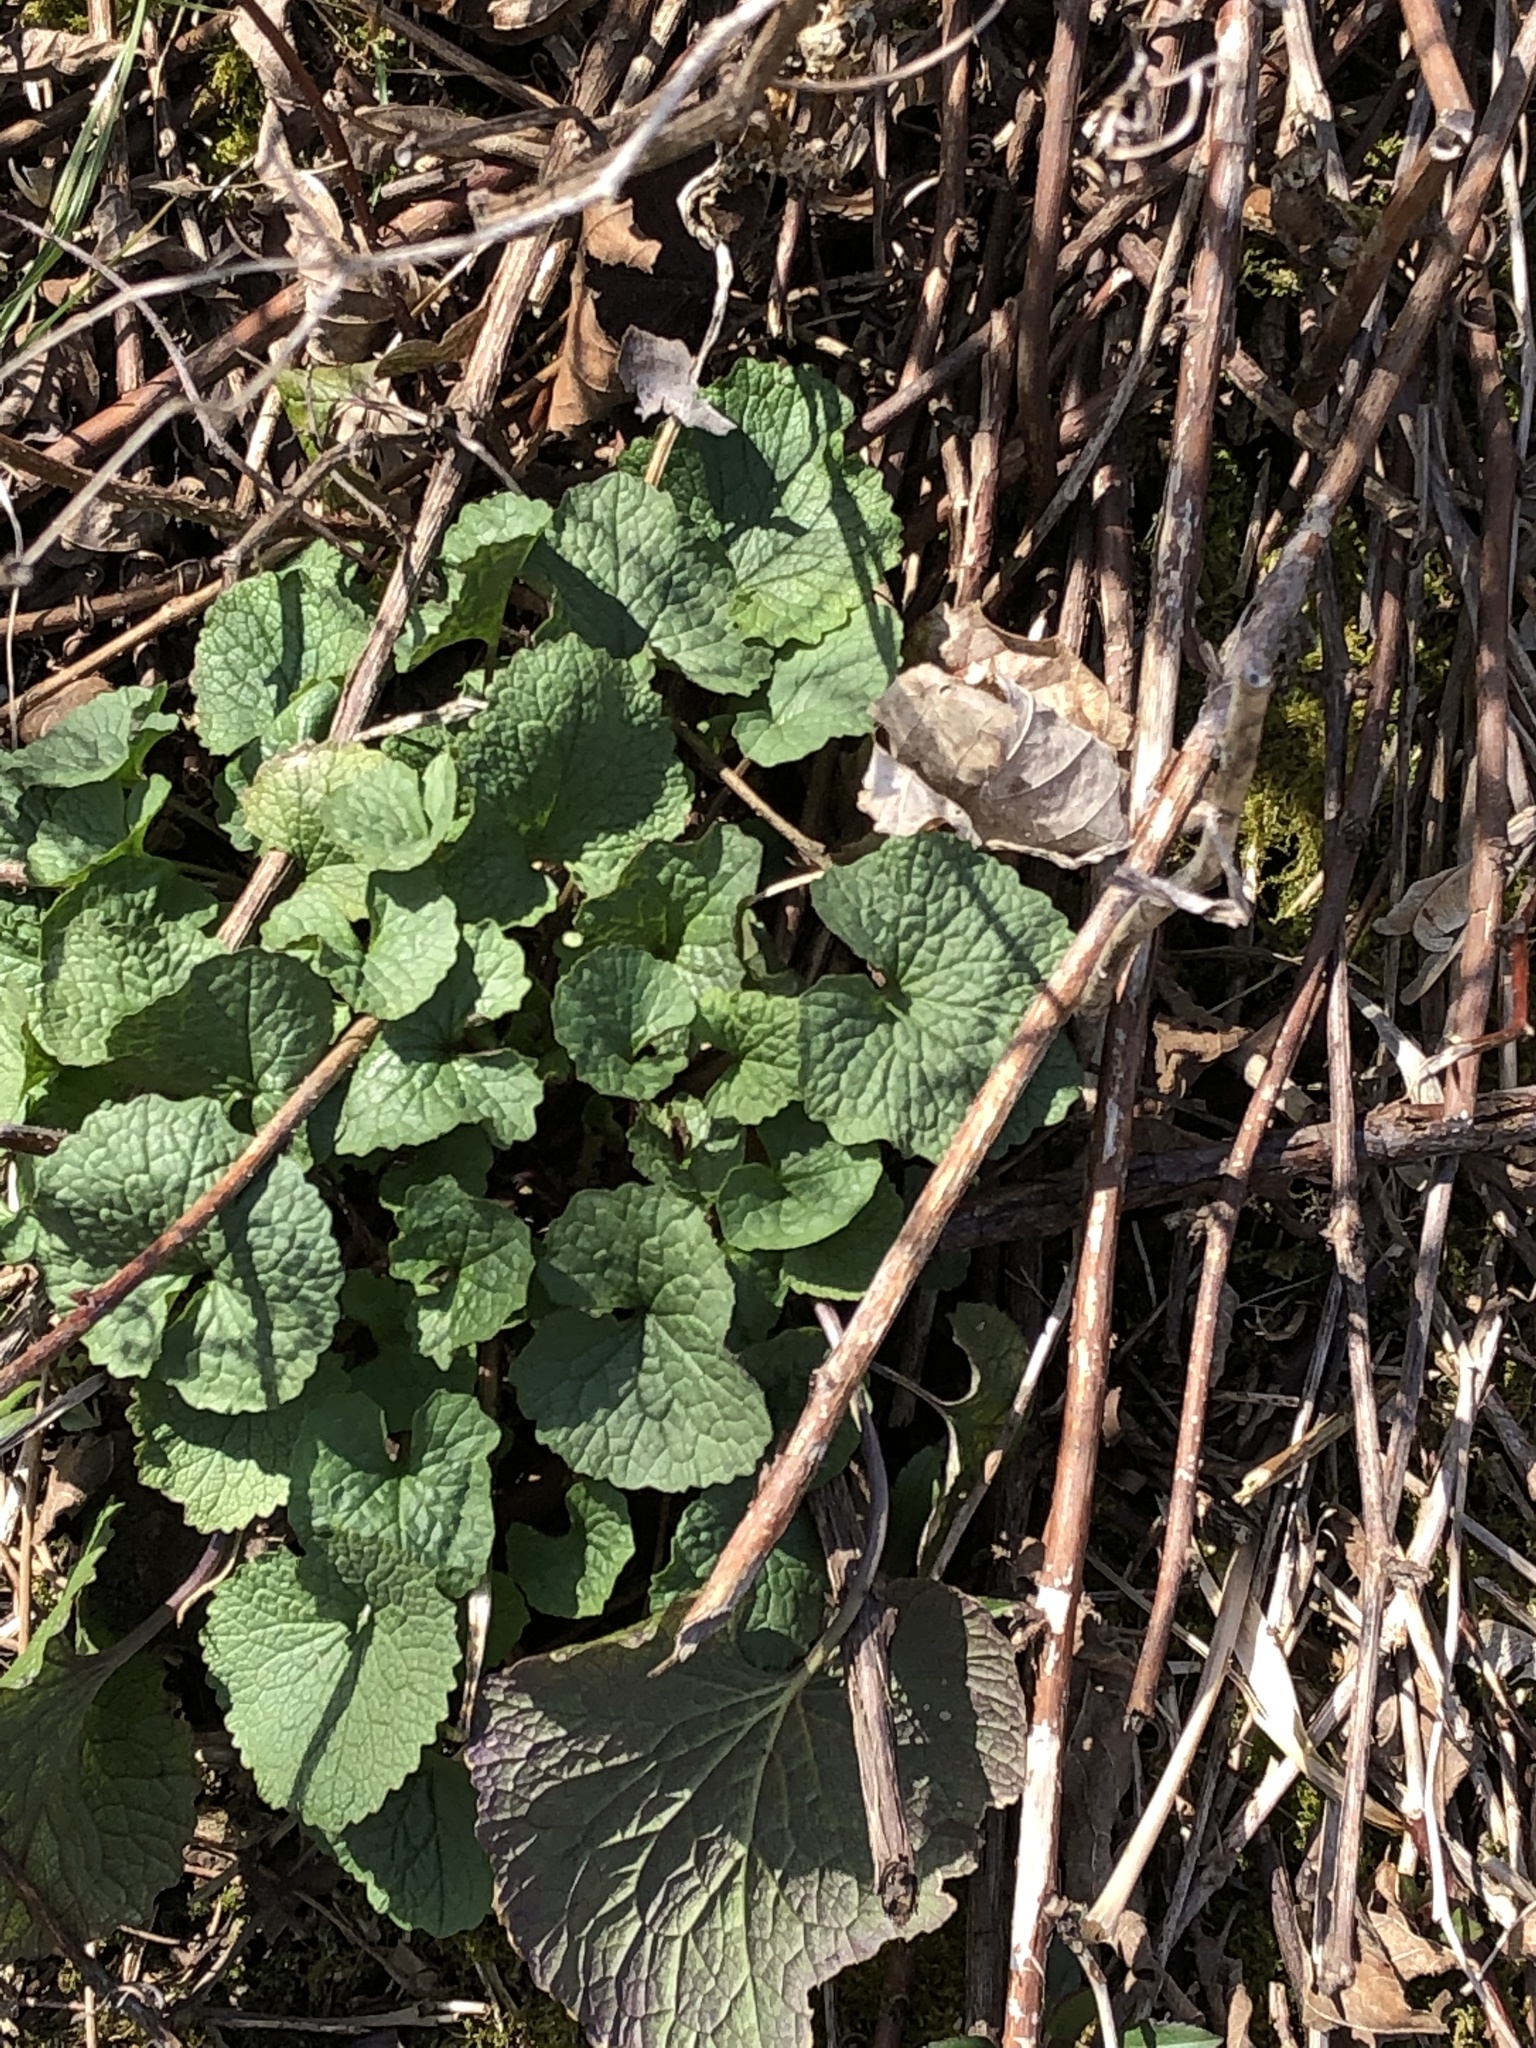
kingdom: Plantae
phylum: Tracheophyta
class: Magnoliopsida
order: Brassicales
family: Brassicaceae
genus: Alliaria
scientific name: Alliaria petiolata
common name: Garlic mustard
